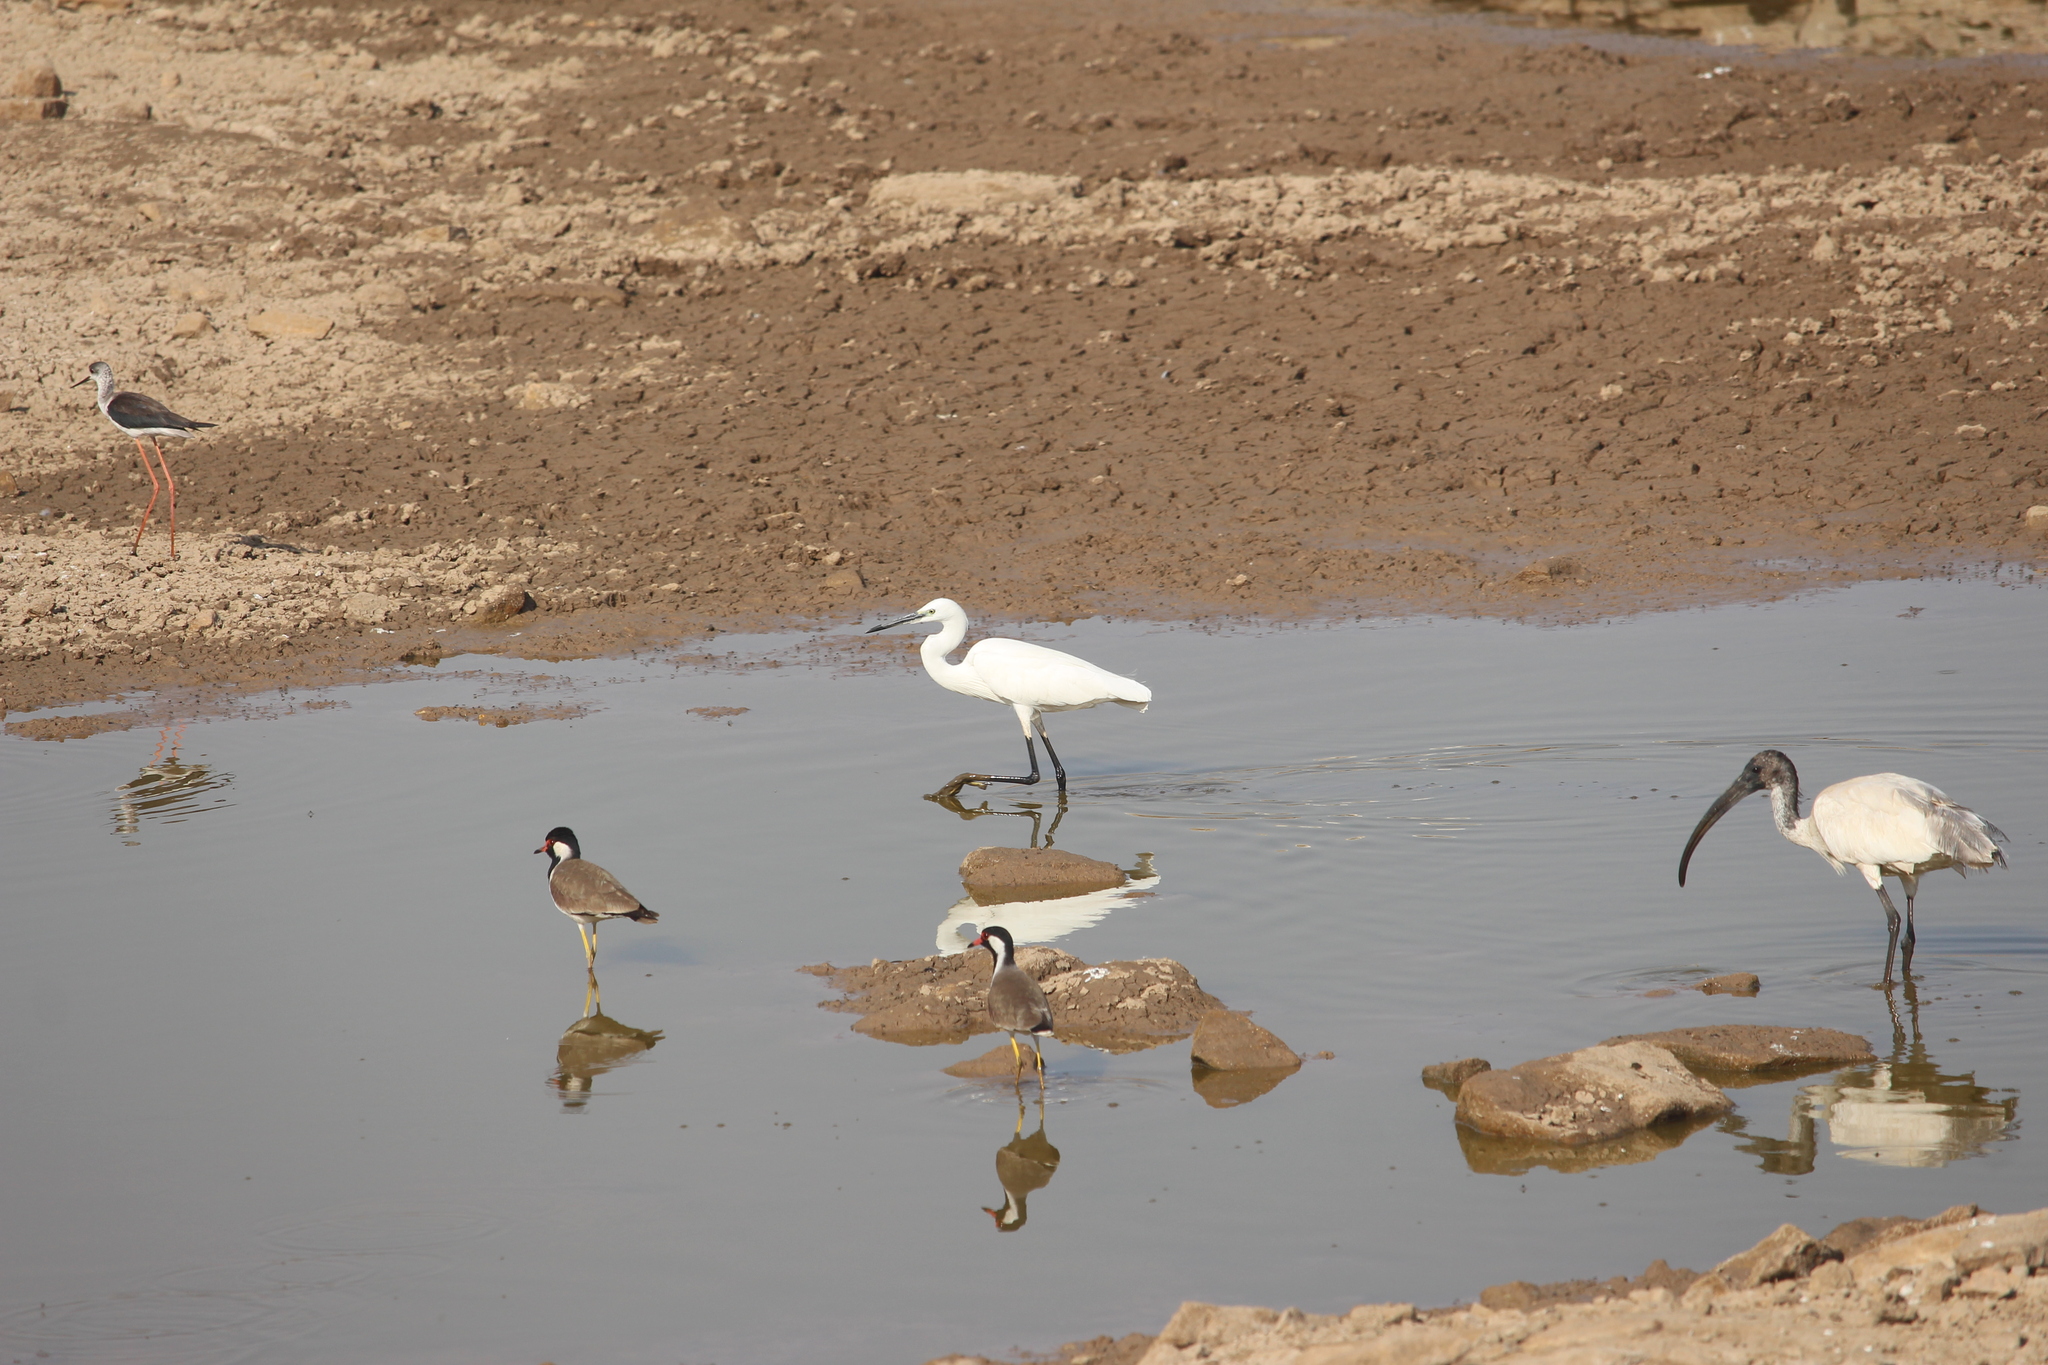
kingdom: Animalia
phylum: Chordata
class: Aves
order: Pelecaniformes
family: Ardeidae
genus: Egretta
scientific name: Egretta garzetta
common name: Little egret
